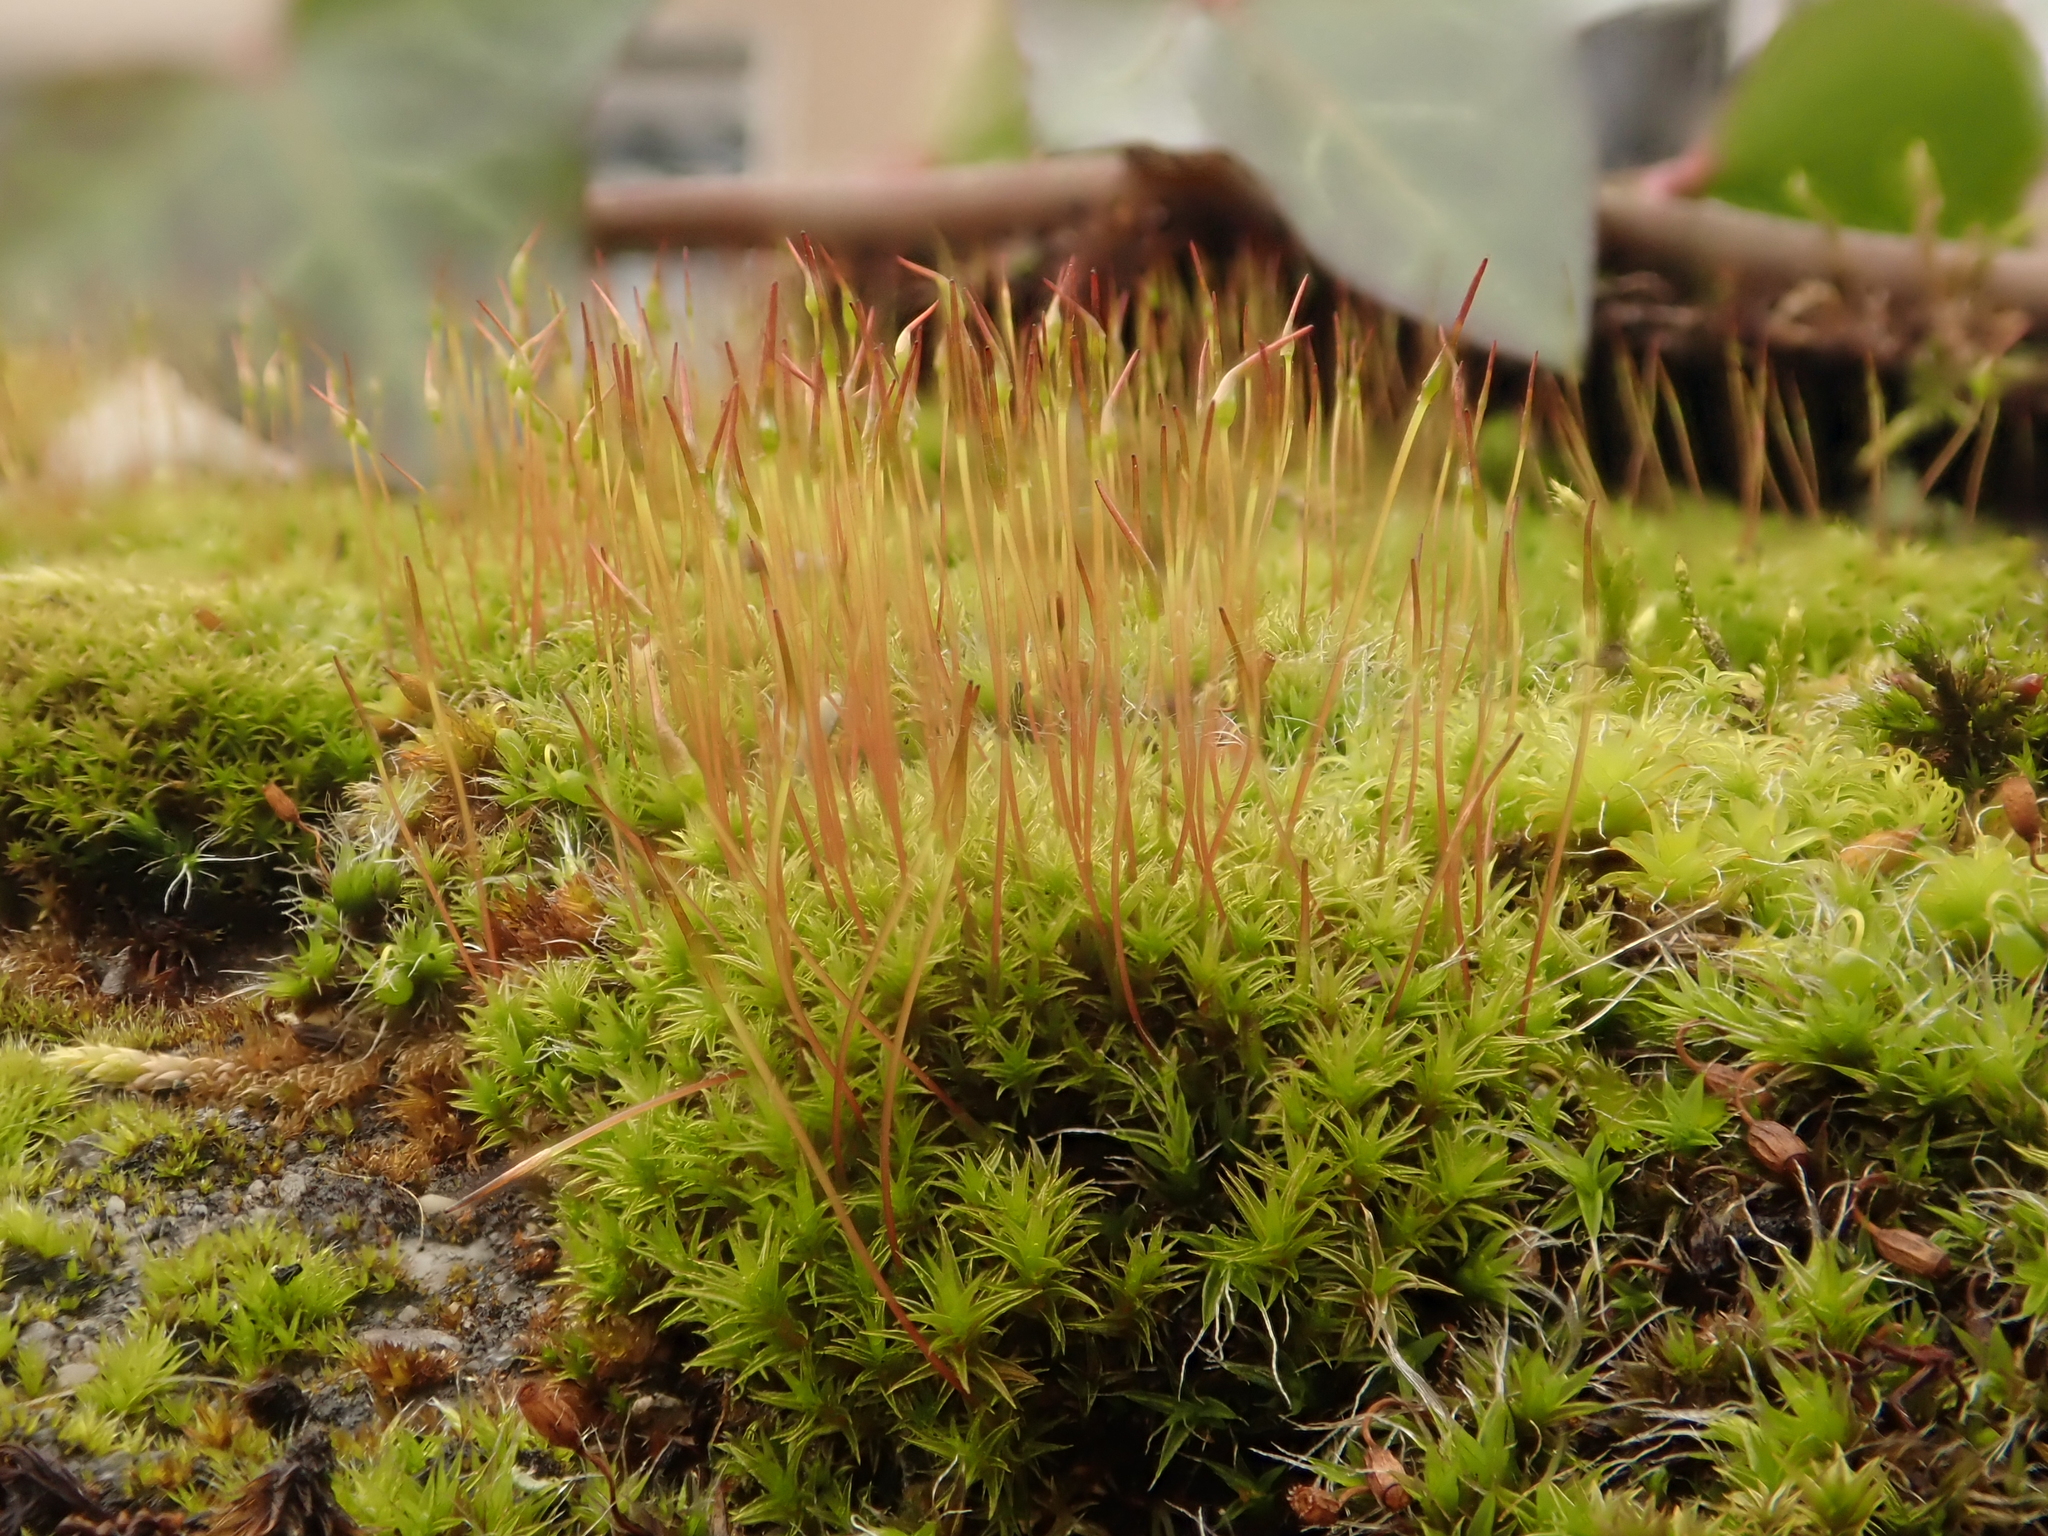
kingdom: Plantae
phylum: Bryophyta
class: Bryopsida
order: Dicranales
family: Ditrichaceae
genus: Ceratodon
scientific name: Ceratodon purpureus
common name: Redshank
